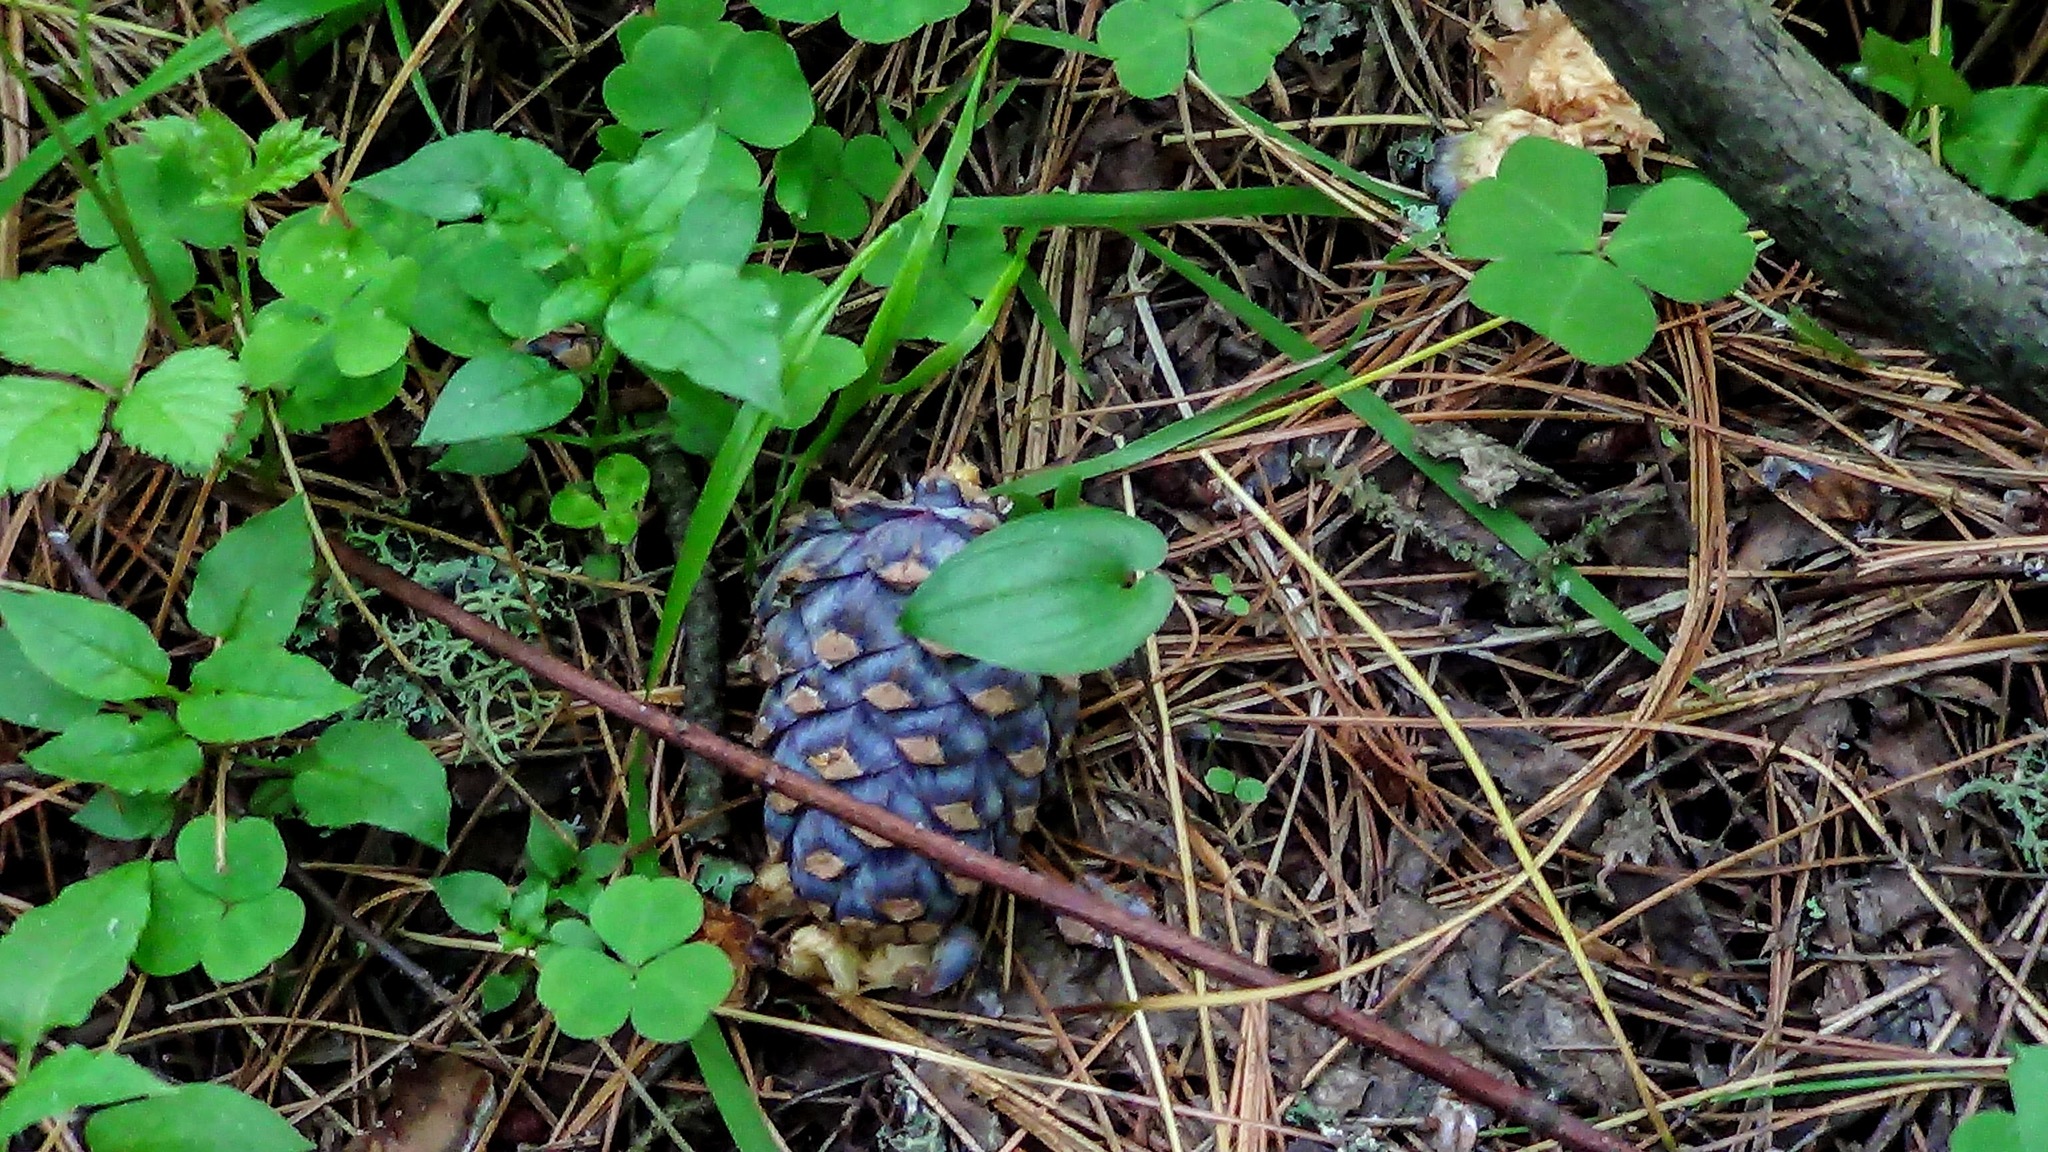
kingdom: Plantae
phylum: Tracheophyta
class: Pinopsida
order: Pinales
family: Pinaceae
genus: Pinus
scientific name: Pinus sibirica
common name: Siberian pine
